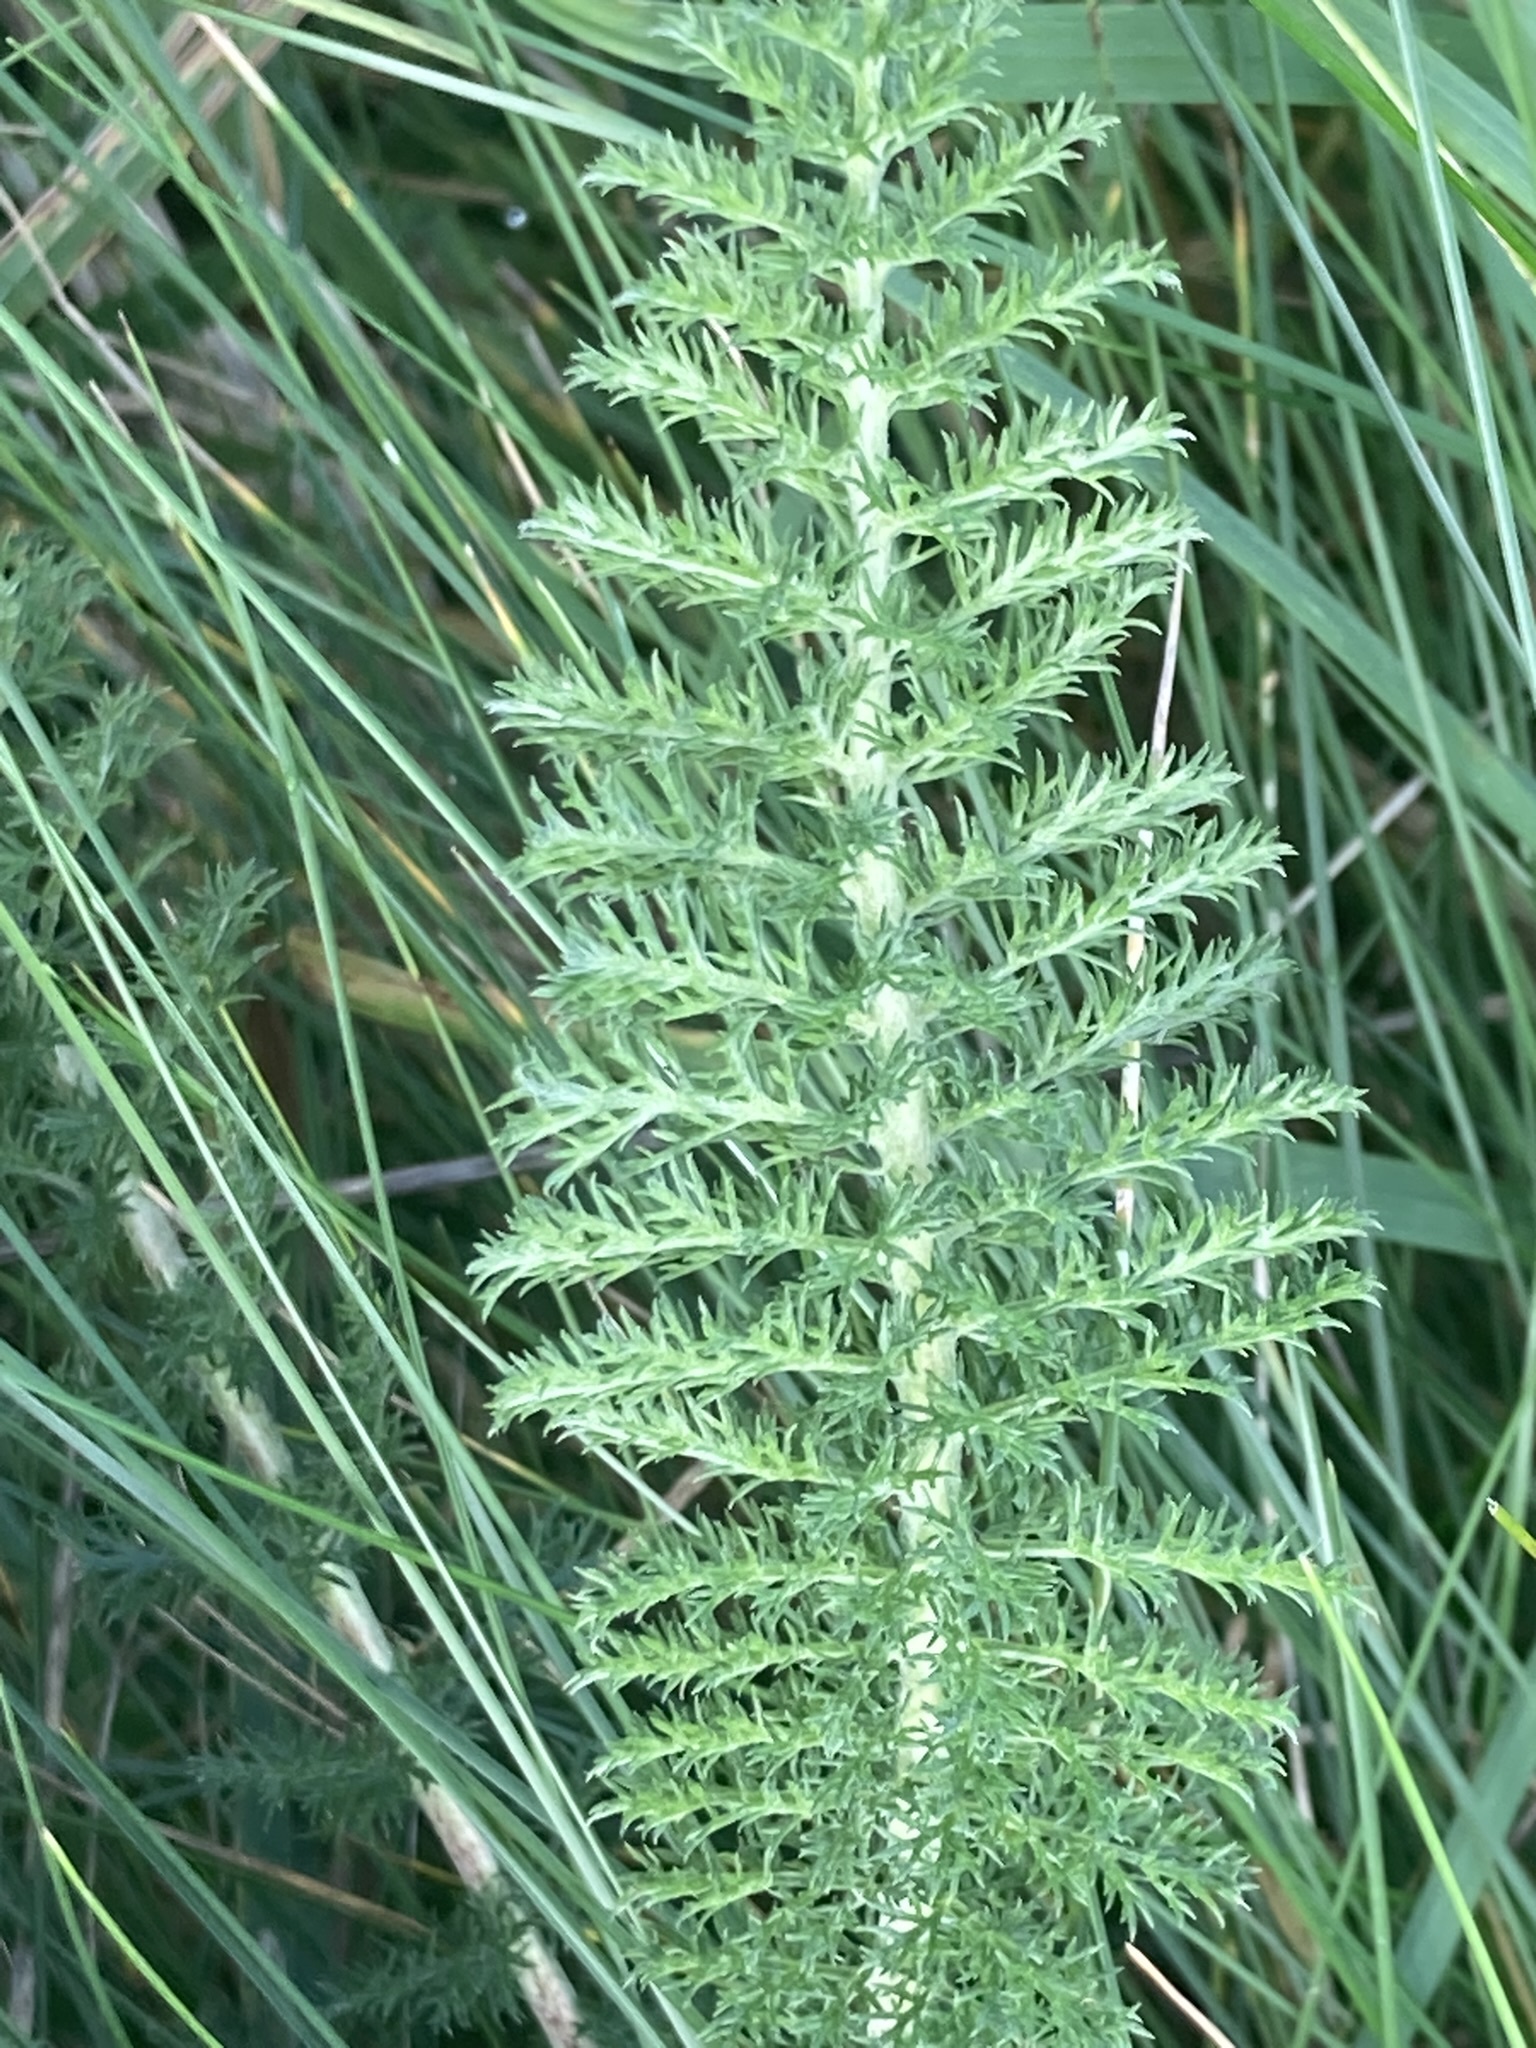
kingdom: Plantae
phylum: Tracheophyta
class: Magnoliopsida
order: Asterales
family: Asteraceae
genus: Achillea
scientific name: Achillea millefolium
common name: Yarrow
